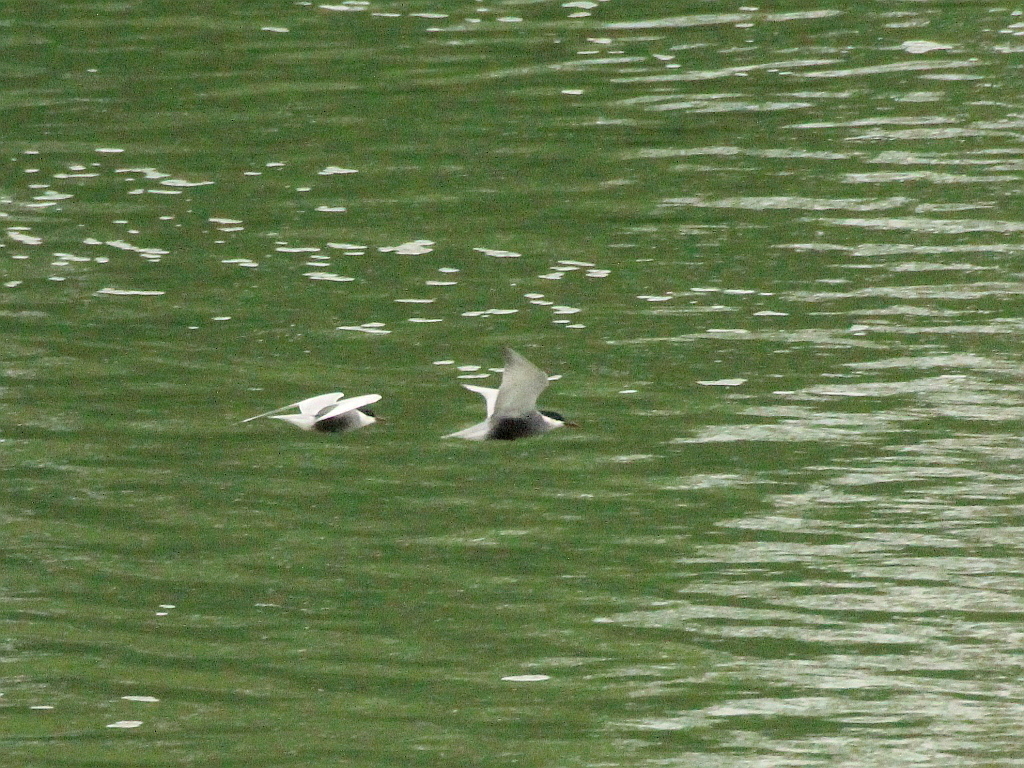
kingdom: Animalia
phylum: Chordata
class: Aves
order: Charadriiformes
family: Laridae
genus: Chlidonias
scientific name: Chlidonias hybrida
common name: Whiskered tern
